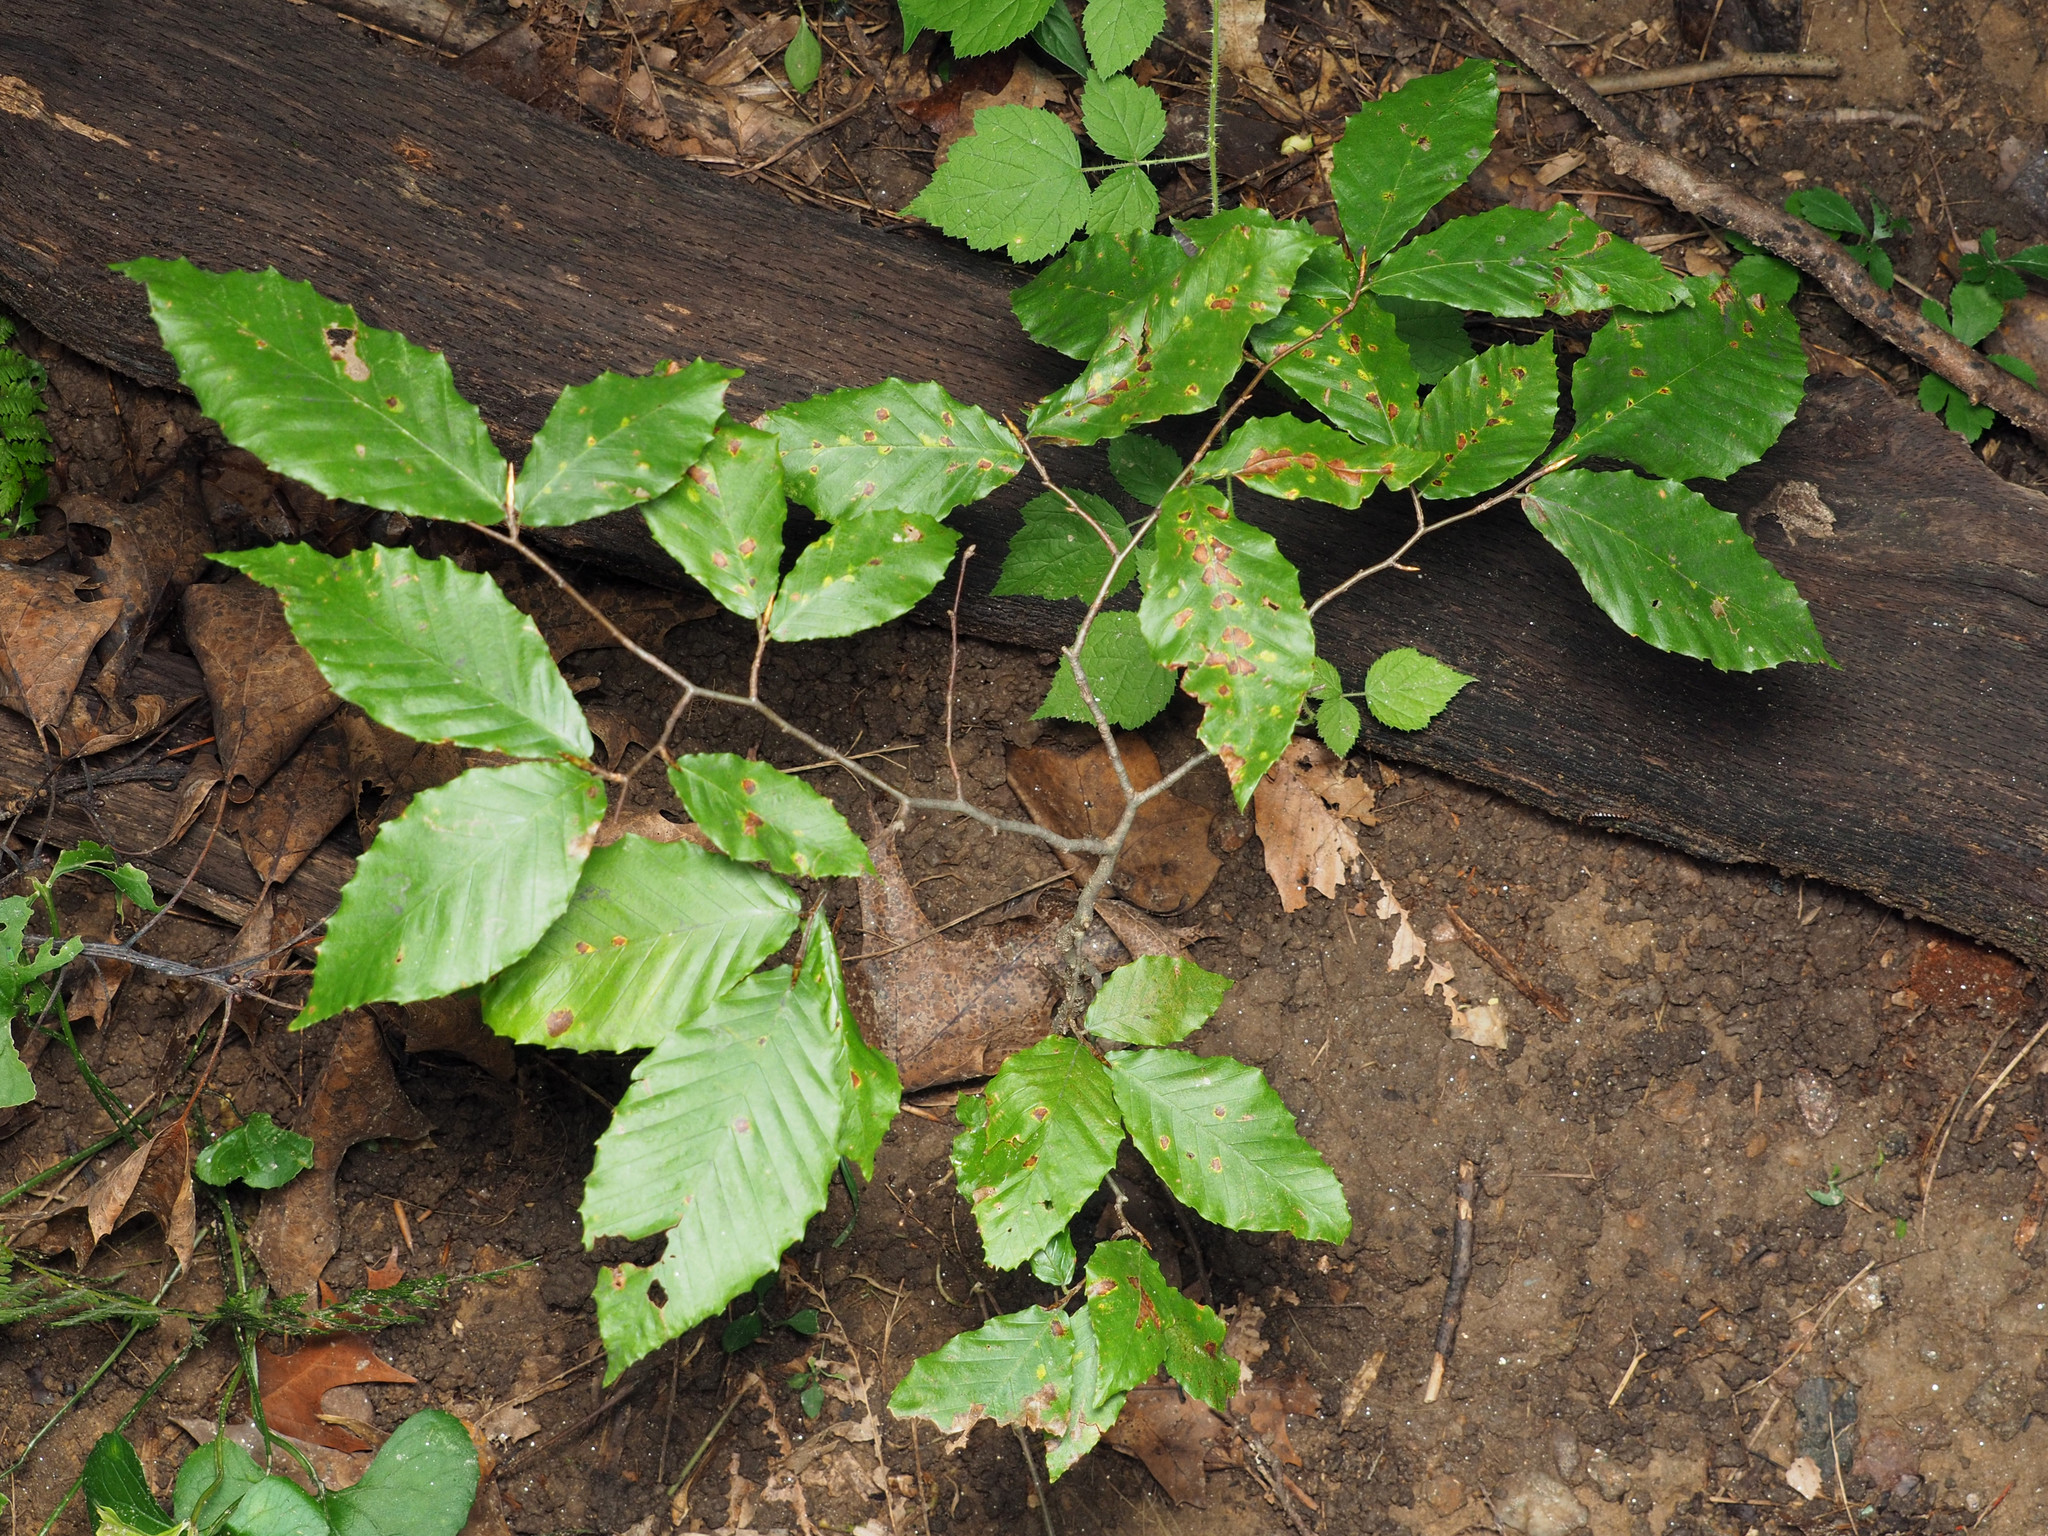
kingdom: Plantae
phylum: Tracheophyta
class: Magnoliopsida
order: Fagales
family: Fagaceae
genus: Fagus
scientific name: Fagus grandifolia
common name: American beech
